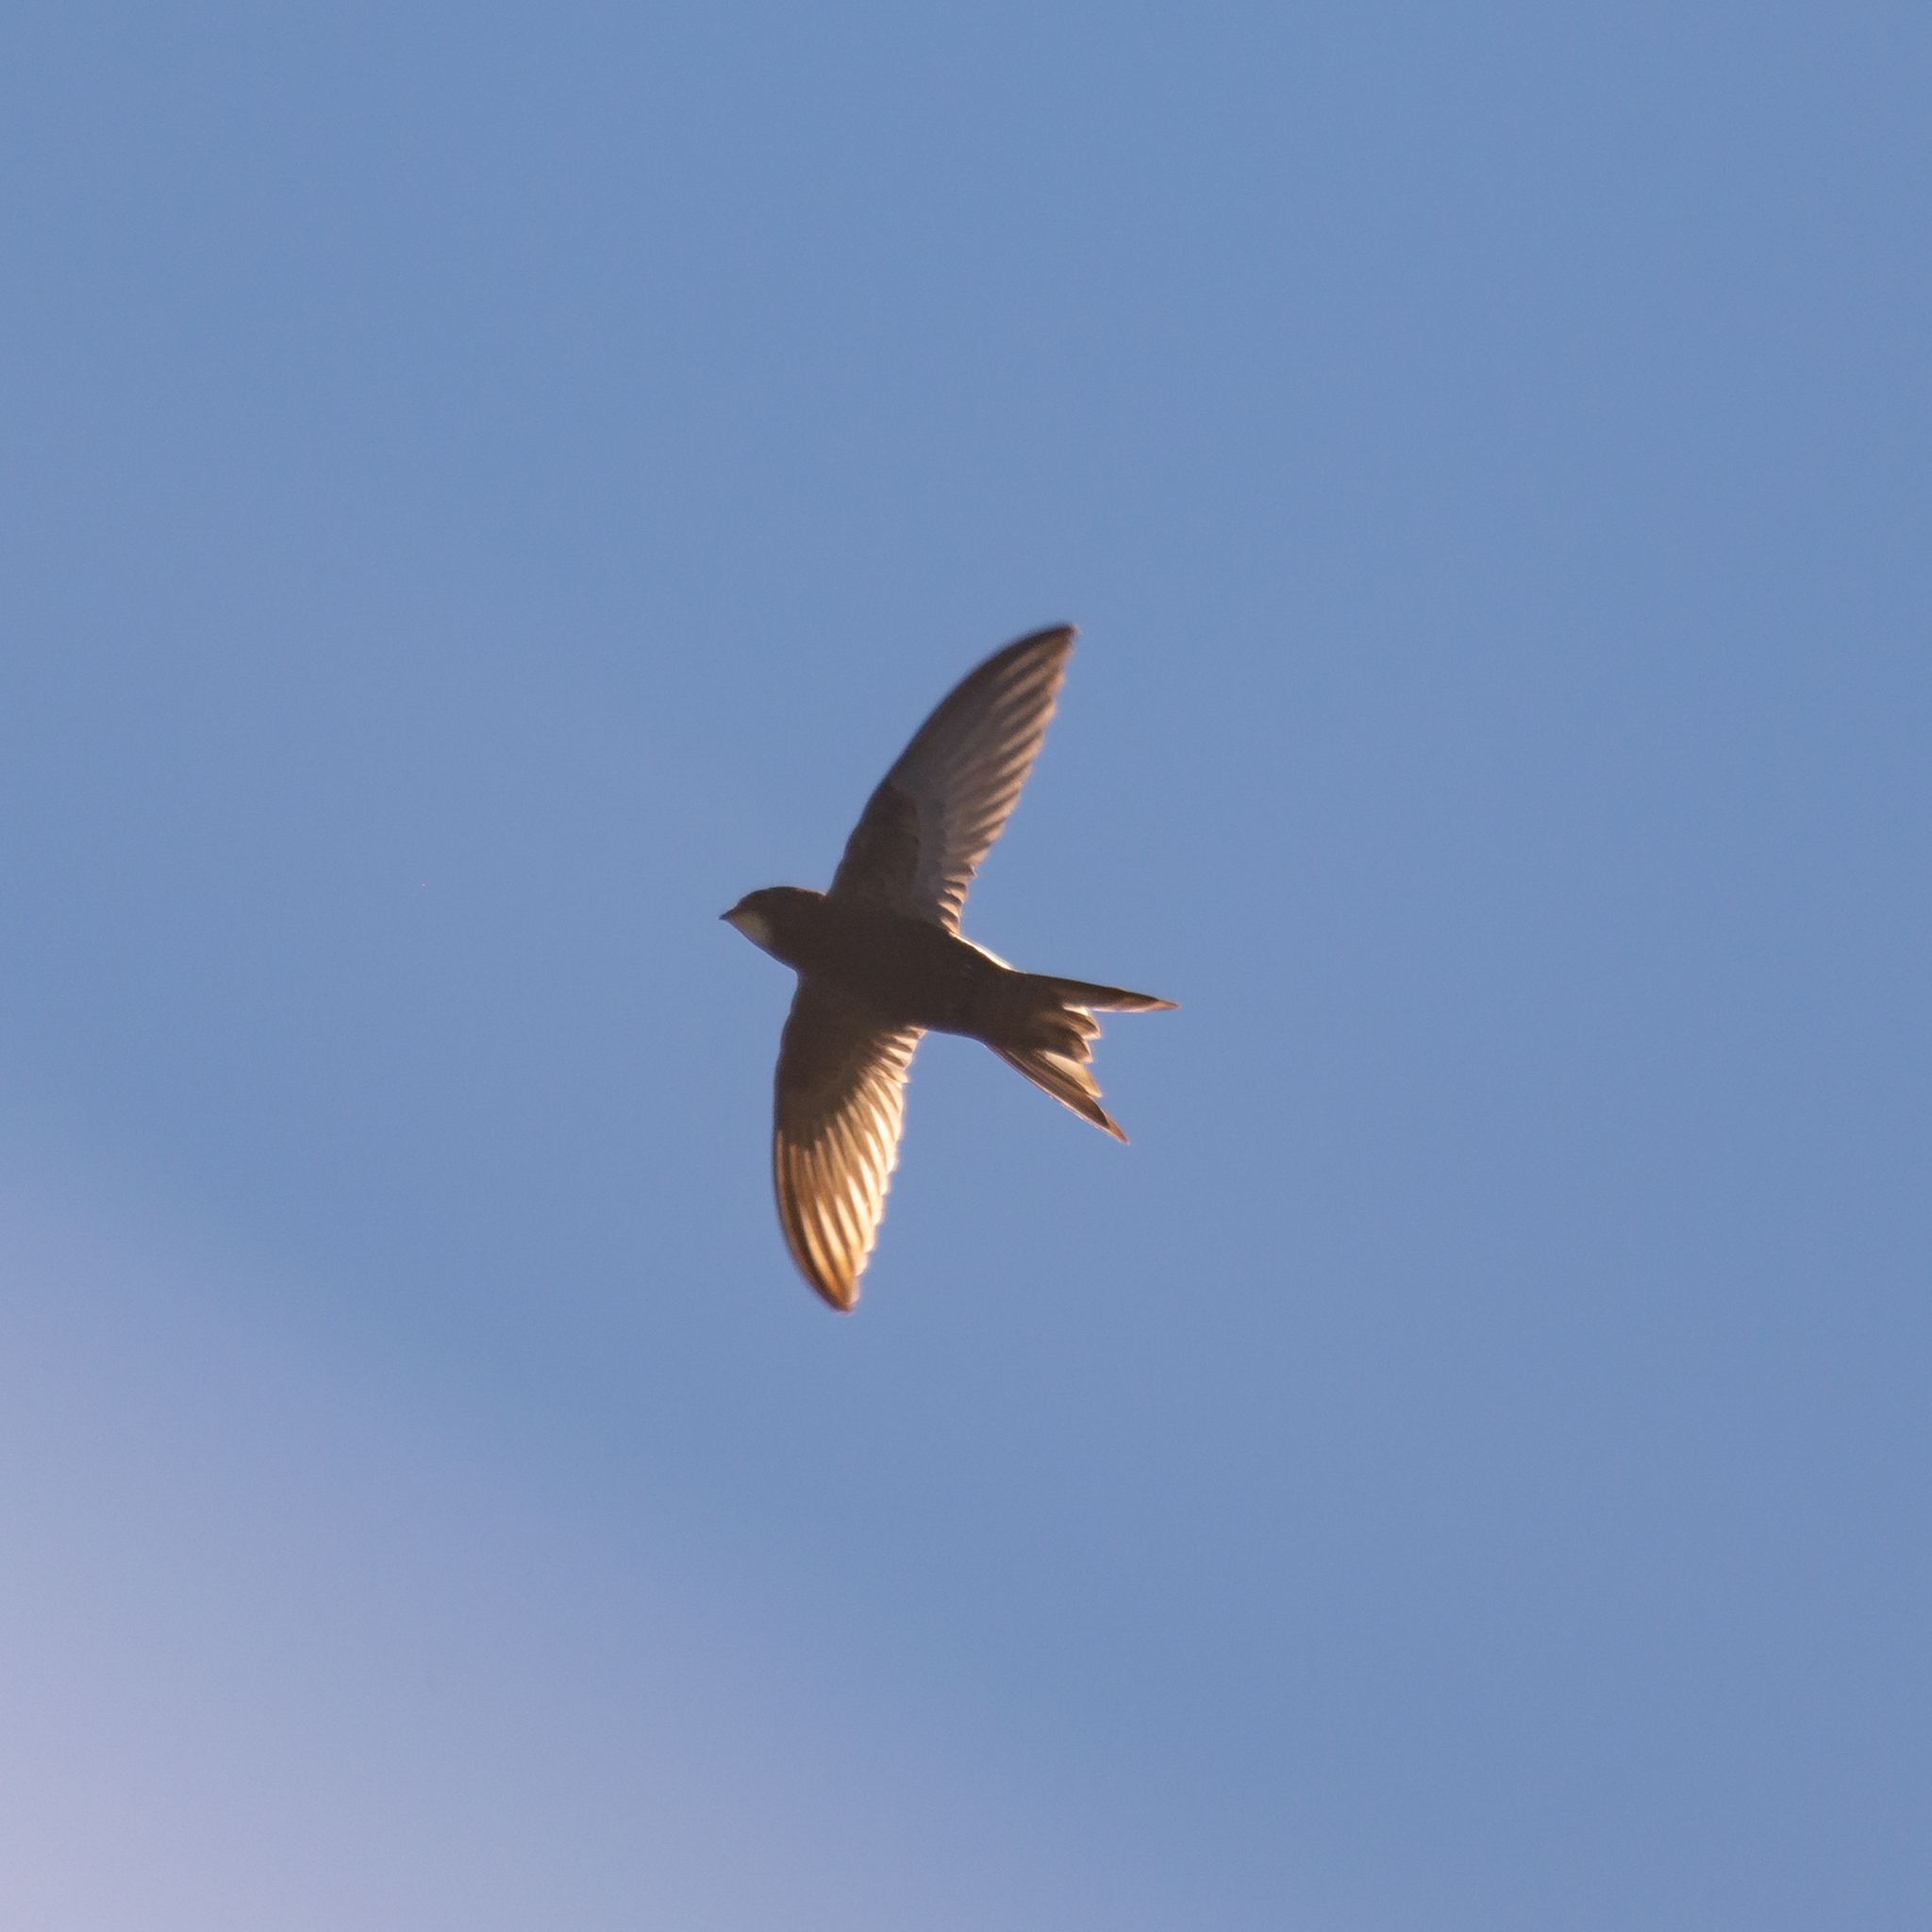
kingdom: Animalia
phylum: Chordata
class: Aves
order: Apodiformes
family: Apodidae
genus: Apus
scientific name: Apus apus
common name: Common swift
